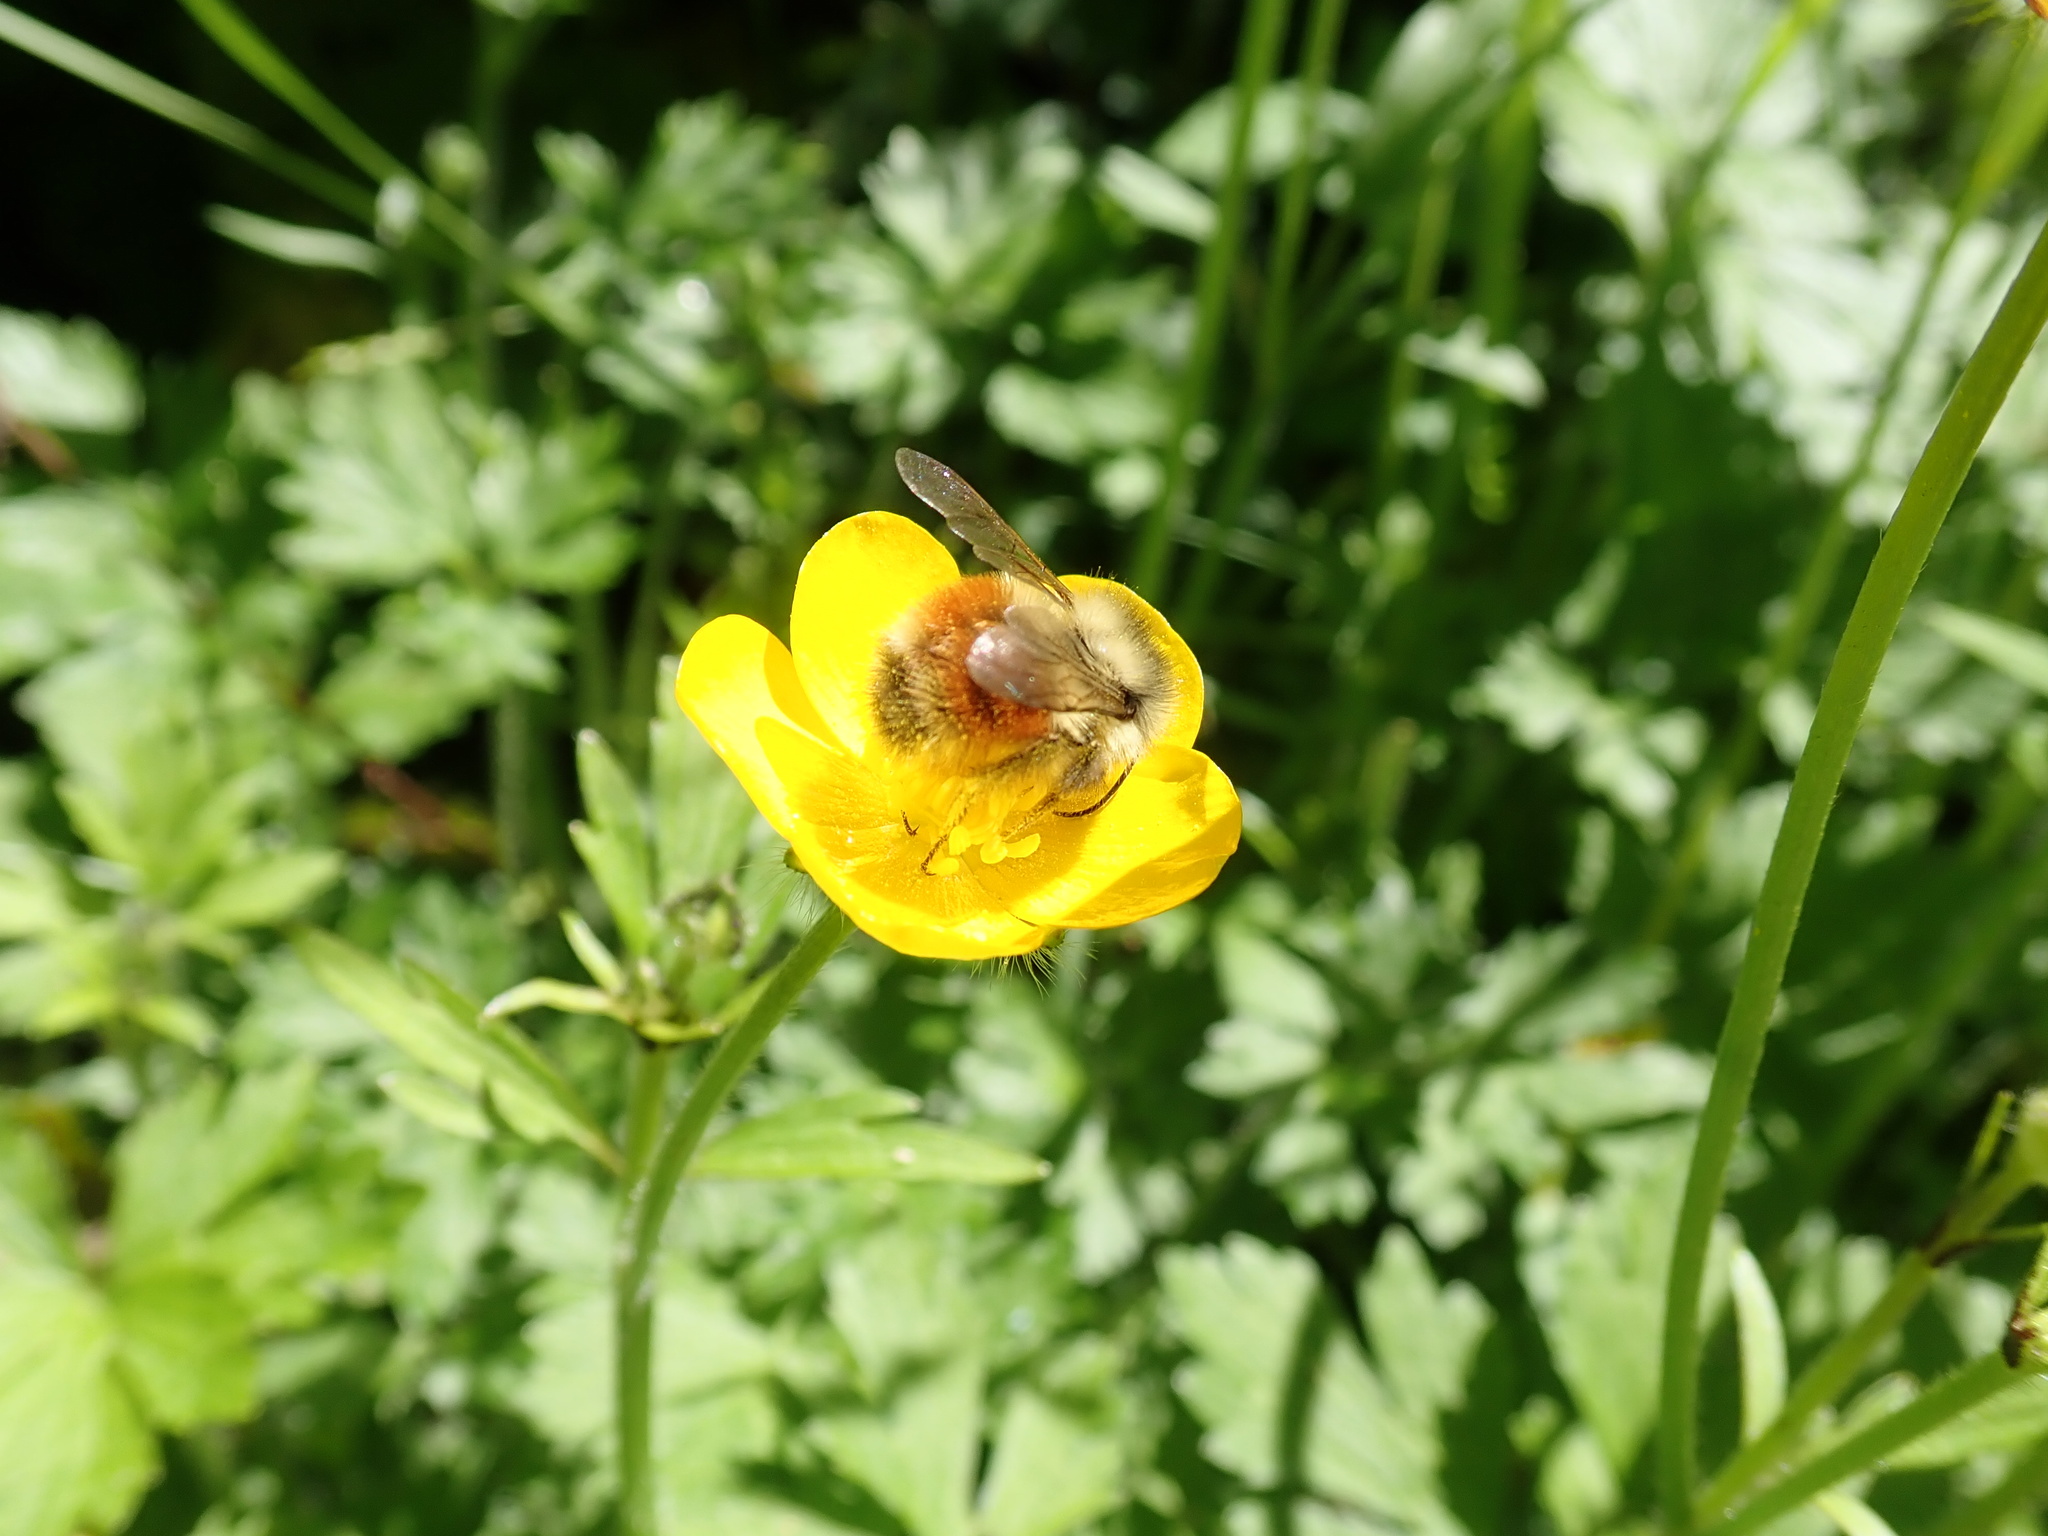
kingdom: Animalia
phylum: Arthropoda
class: Insecta
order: Hymenoptera
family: Apidae
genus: Bombus
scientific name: Bombus melanopygus
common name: Black tail bumble bee
